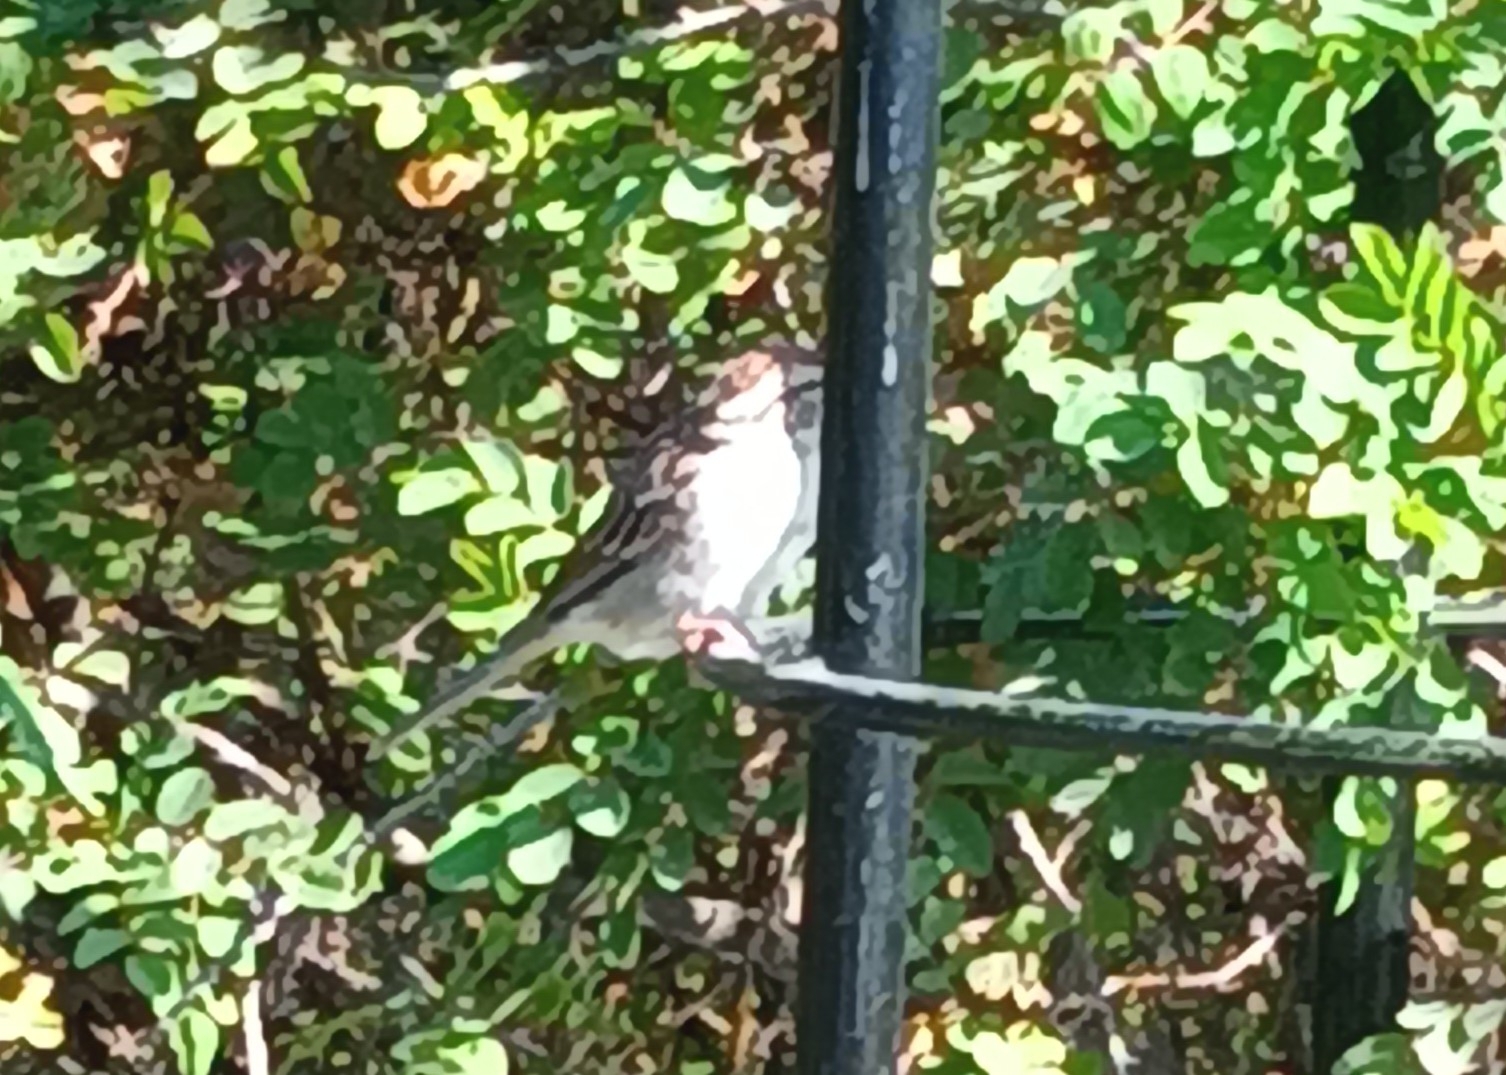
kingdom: Animalia
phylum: Chordata
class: Aves
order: Passeriformes
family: Passerellidae
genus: Spizella
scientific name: Spizella passerina
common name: Chipping sparrow
